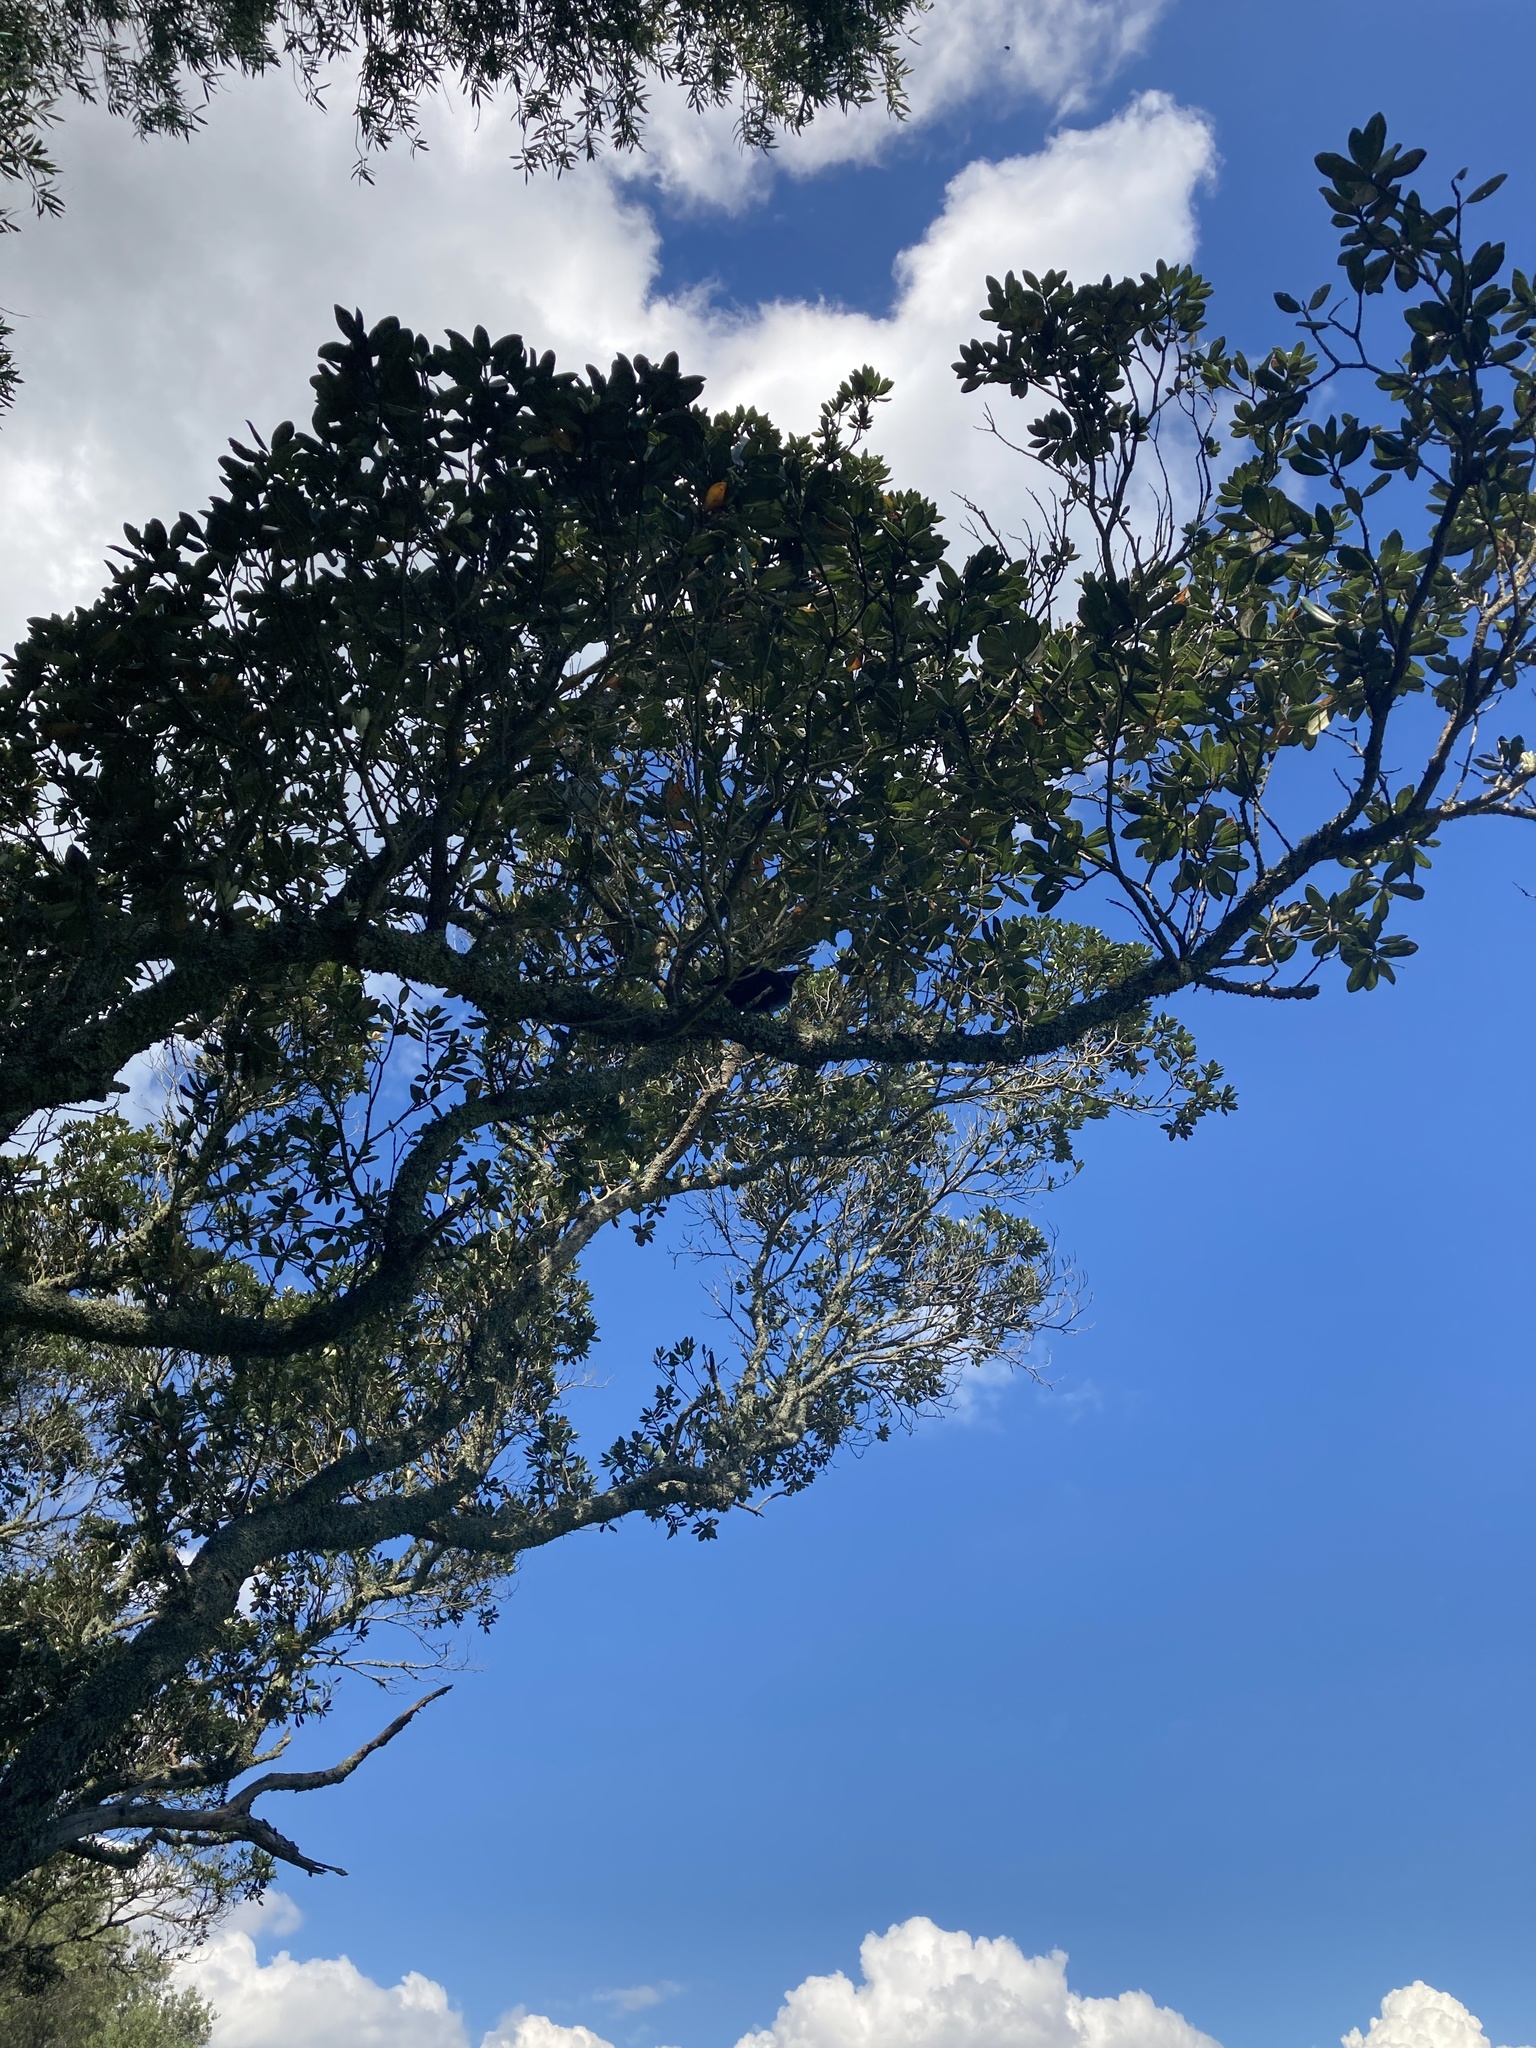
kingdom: Plantae
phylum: Tracheophyta
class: Magnoliopsida
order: Myrtales
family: Myrtaceae
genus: Metrosideros
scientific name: Metrosideros excelsa
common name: New zealand christmastree
